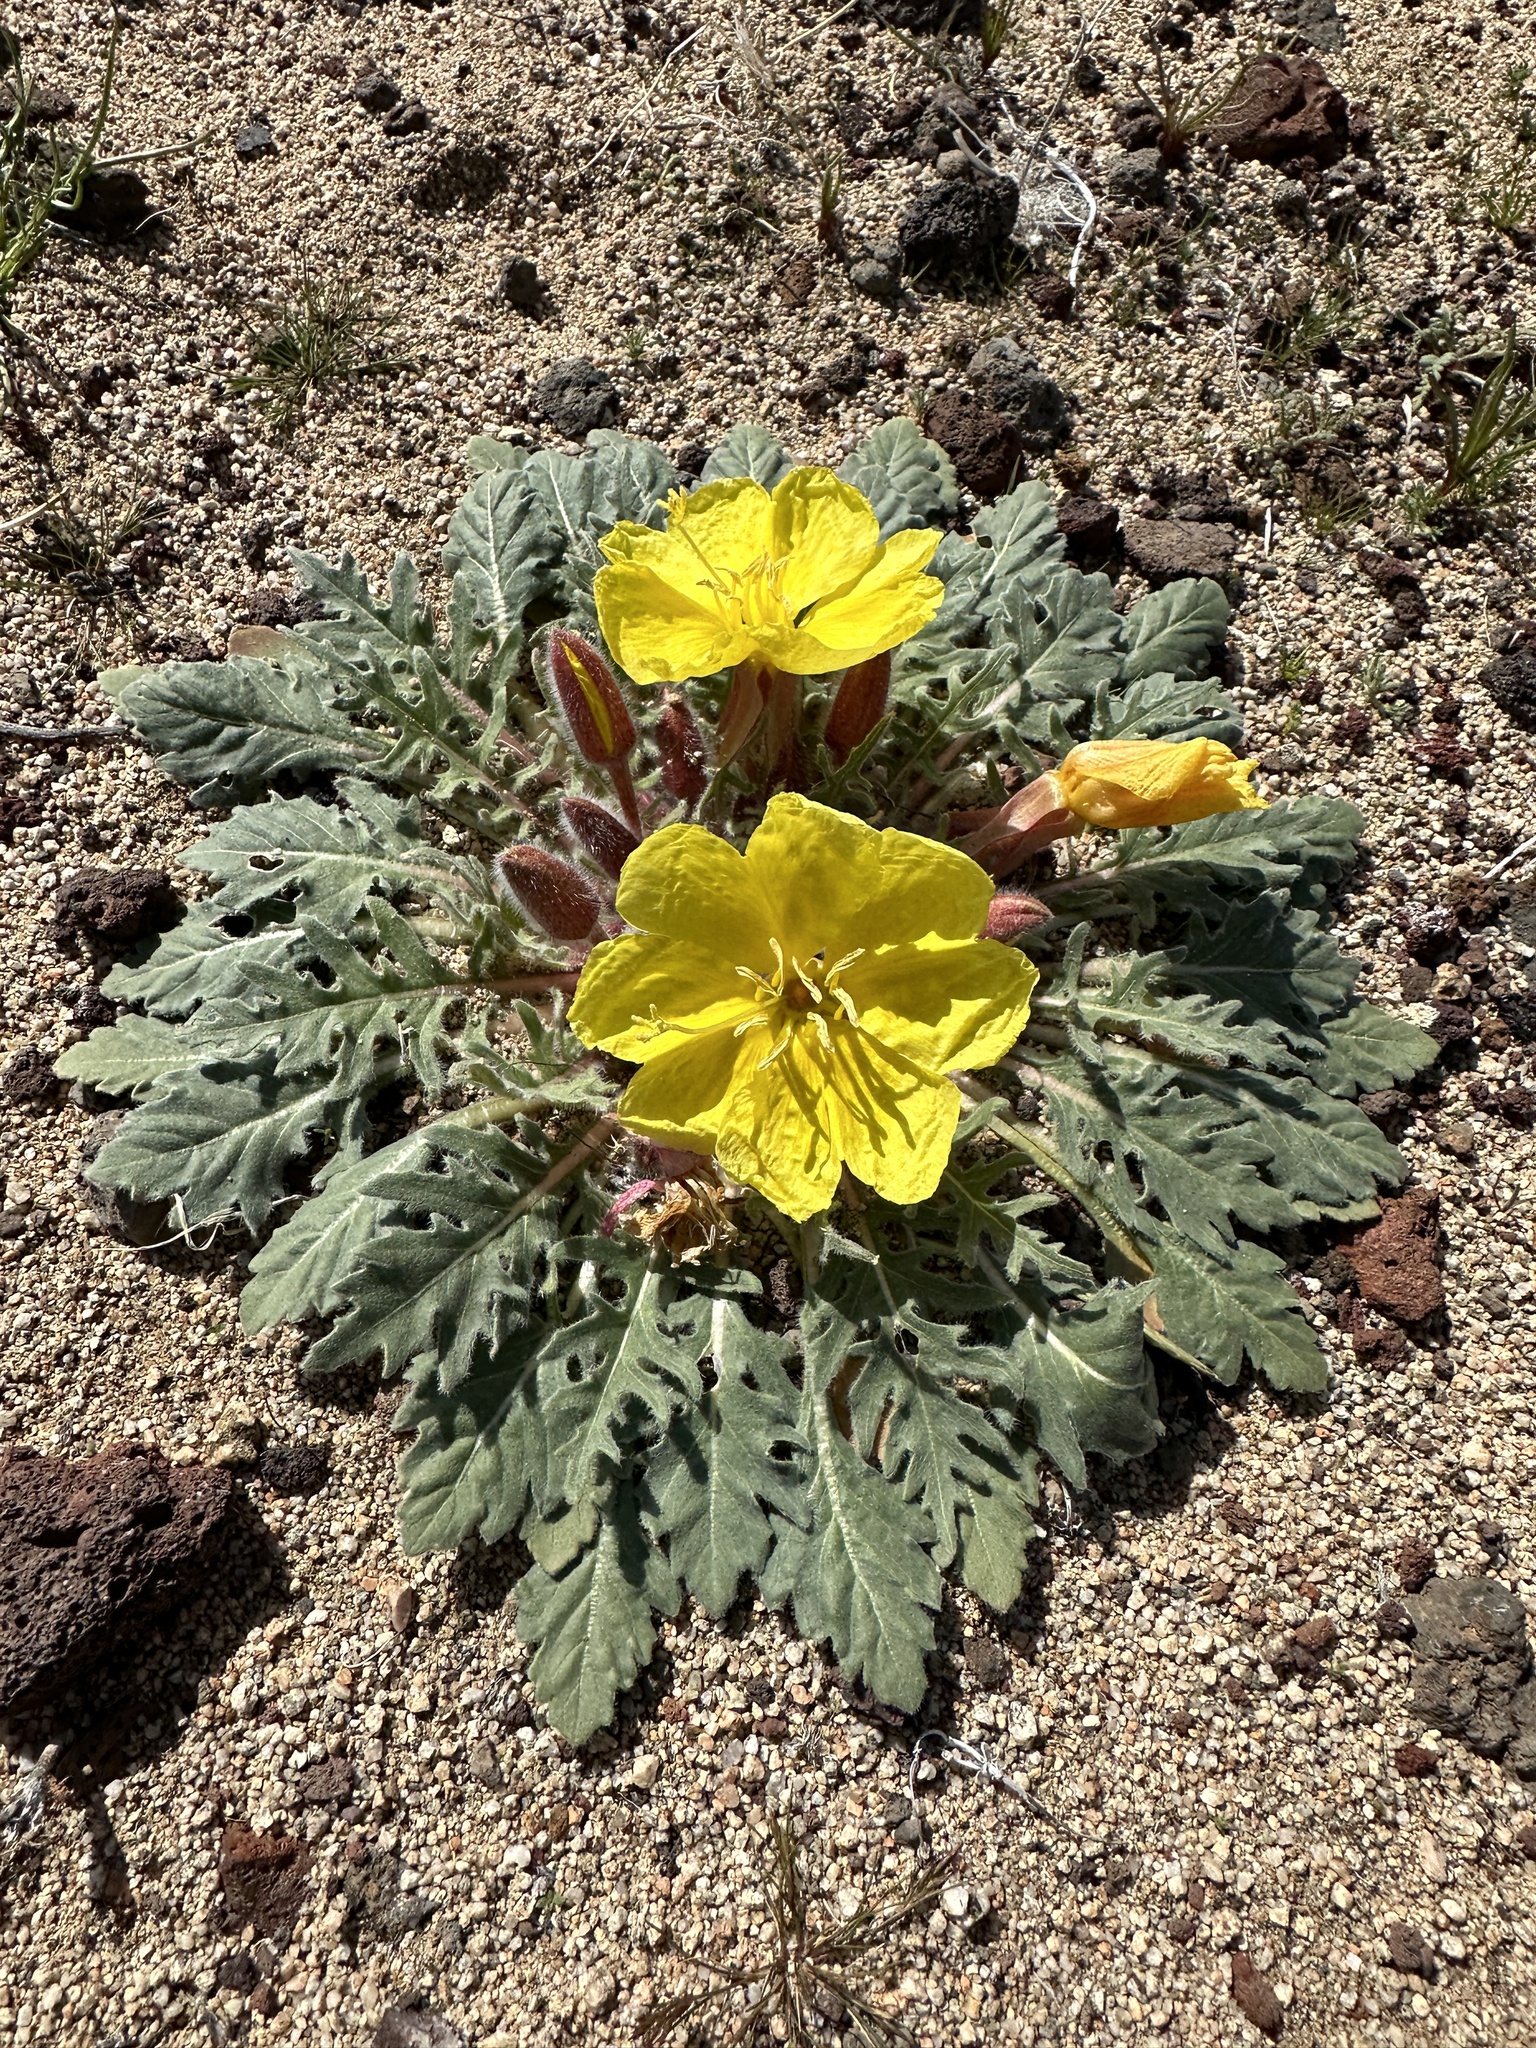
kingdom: Plantae
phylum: Tracheophyta
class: Magnoliopsida
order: Myrtales
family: Onagraceae
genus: Oenothera
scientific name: Oenothera primiveris
